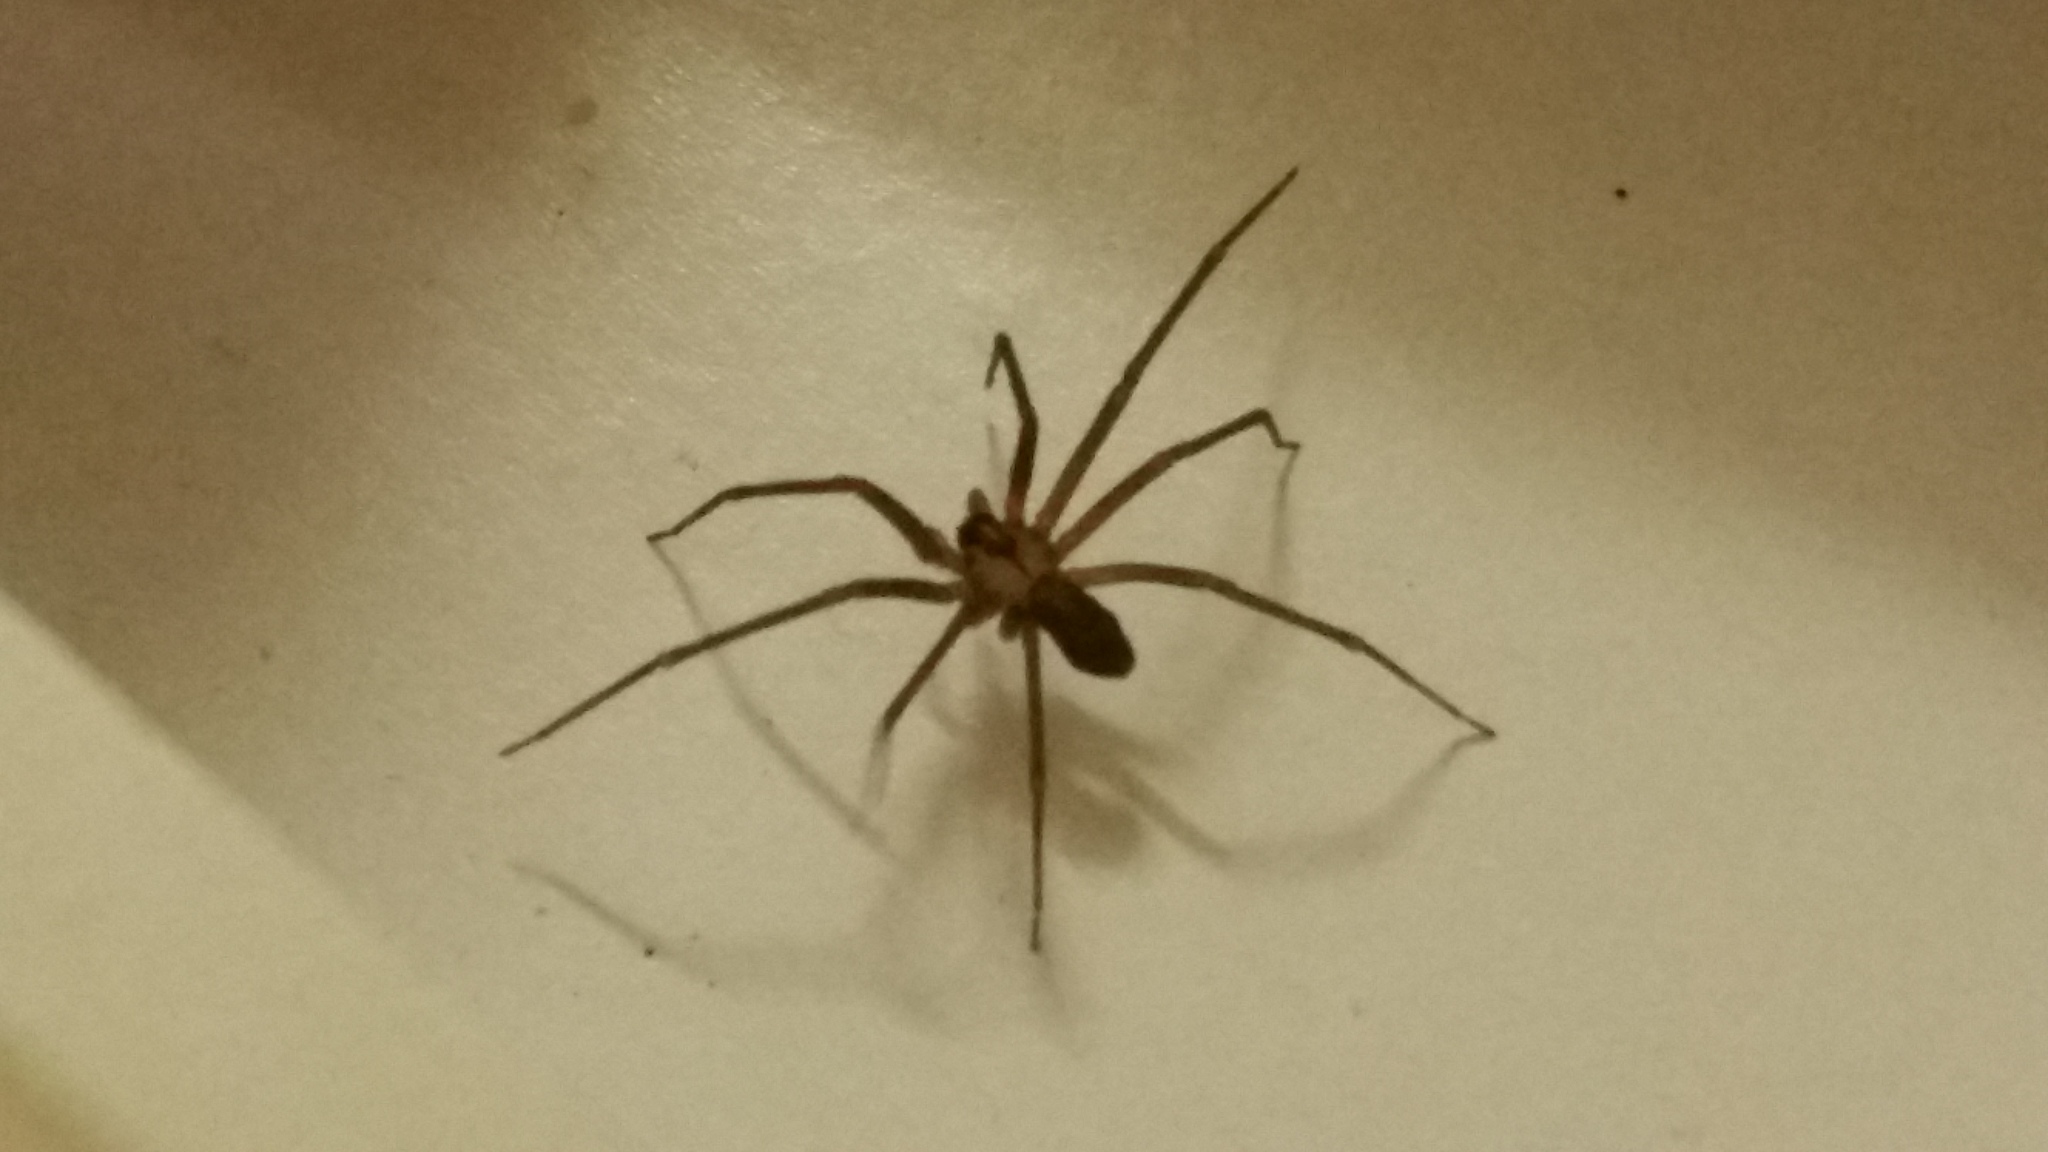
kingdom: Animalia
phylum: Arthropoda
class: Arachnida
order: Araneae
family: Sicariidae
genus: Loxosceles
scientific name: Loxosceles reclusa
